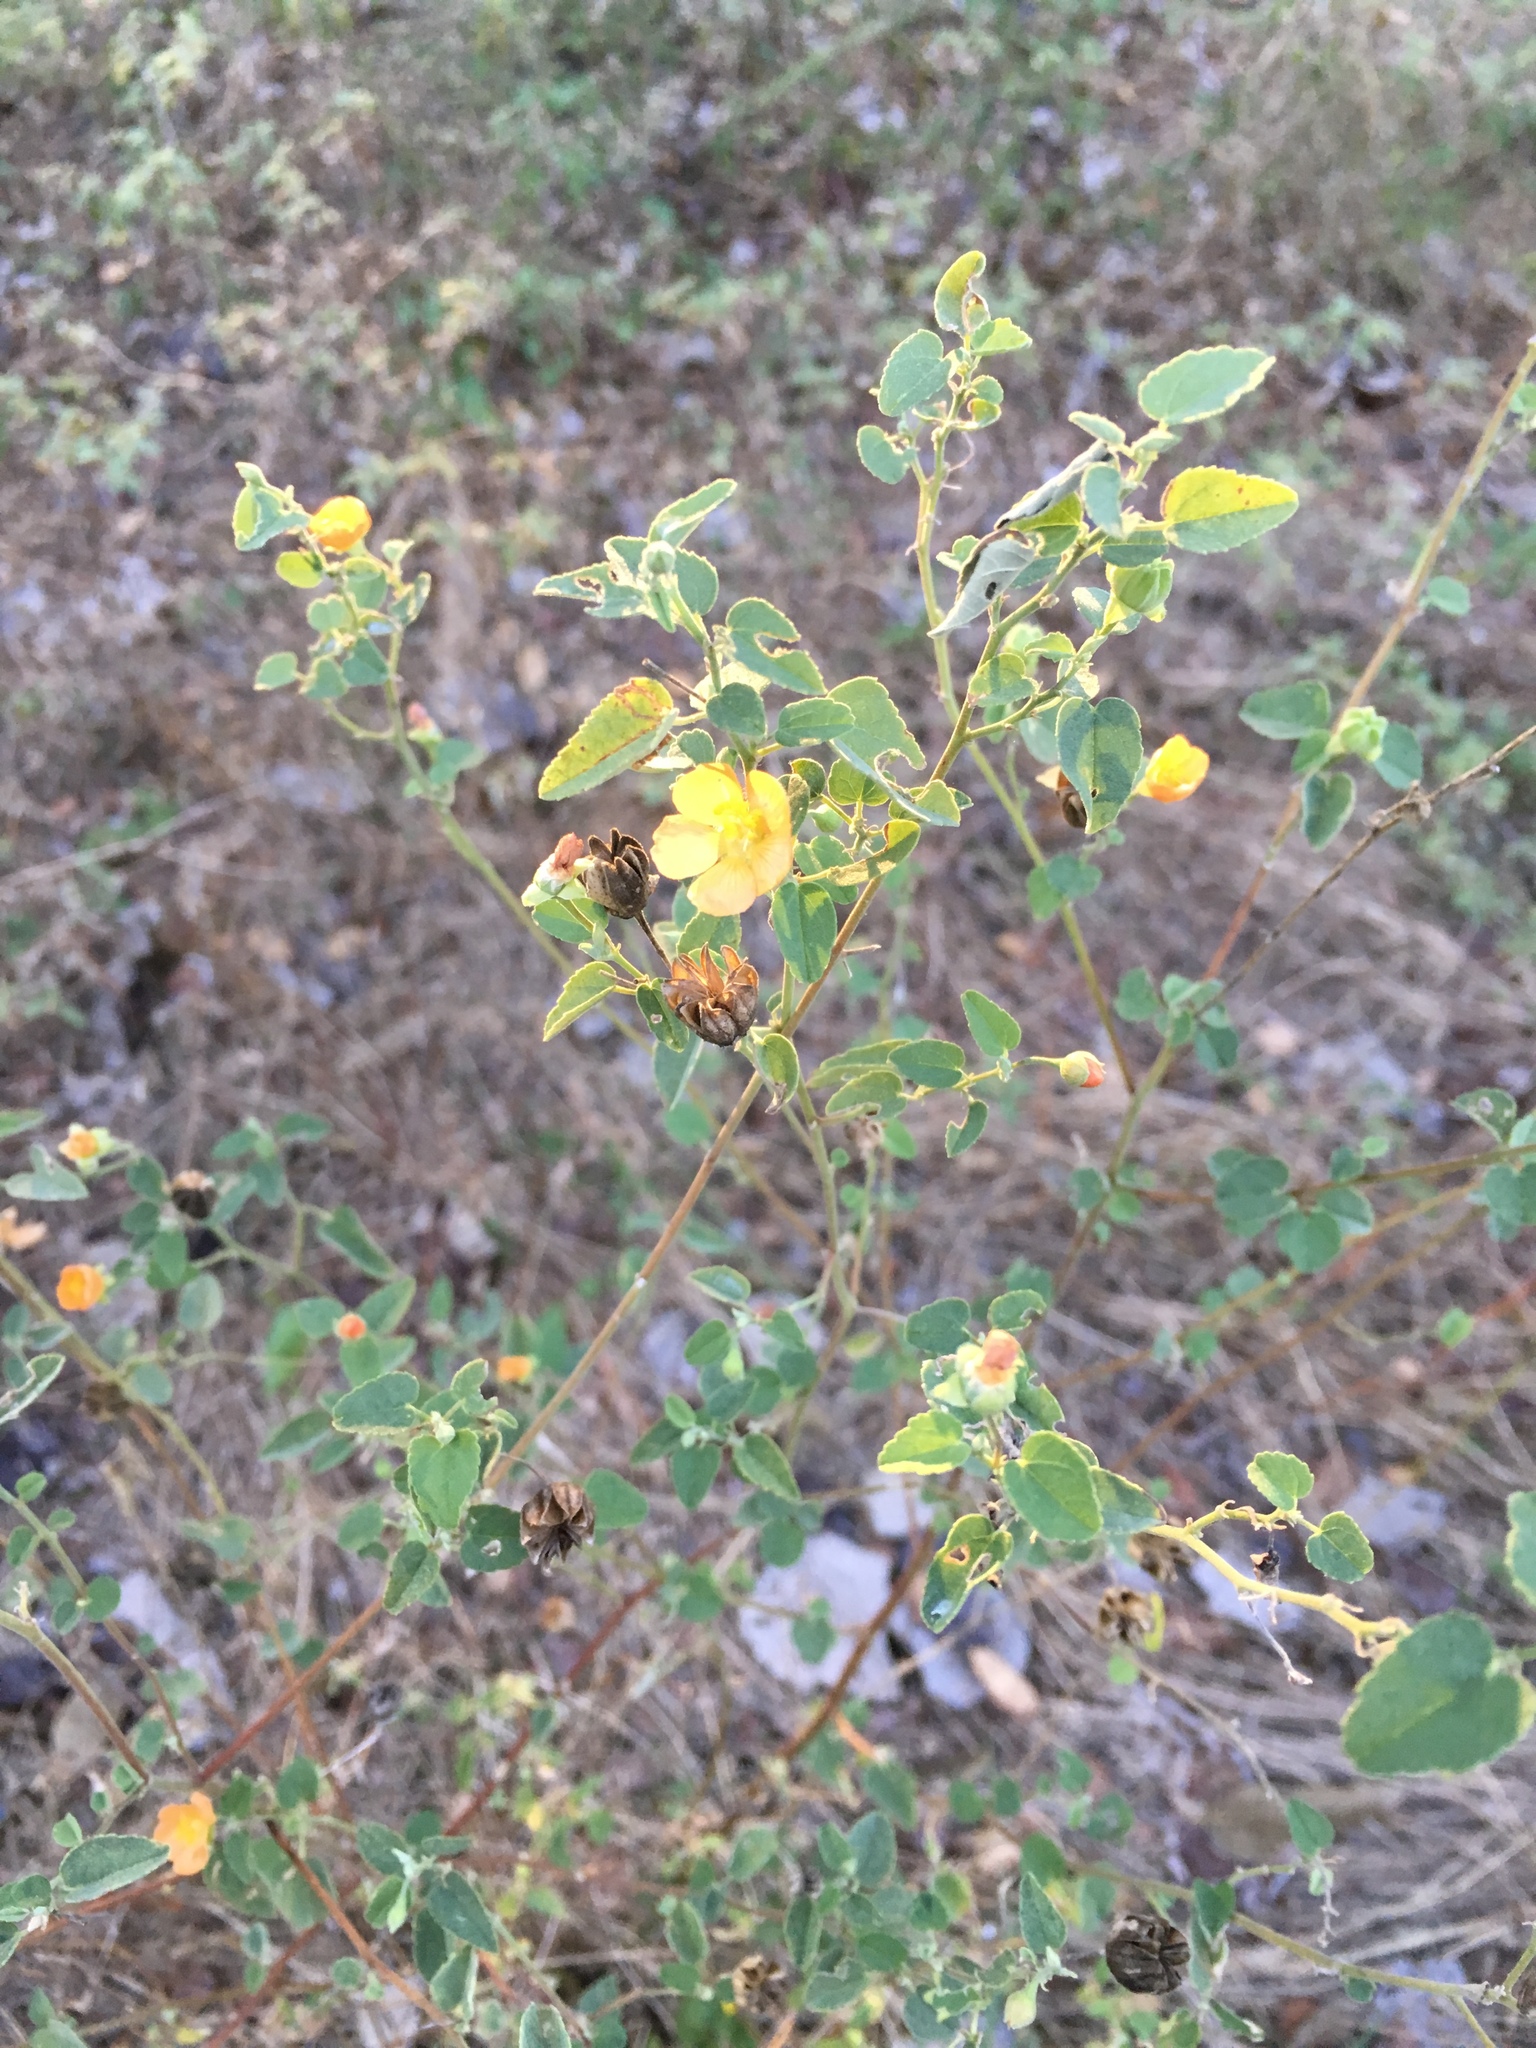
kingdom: Plantae
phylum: Tracheophyta
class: Magnoliopsida
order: Malvales
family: Malvaceae
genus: Abutilon
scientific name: Abutilon fruticosum
